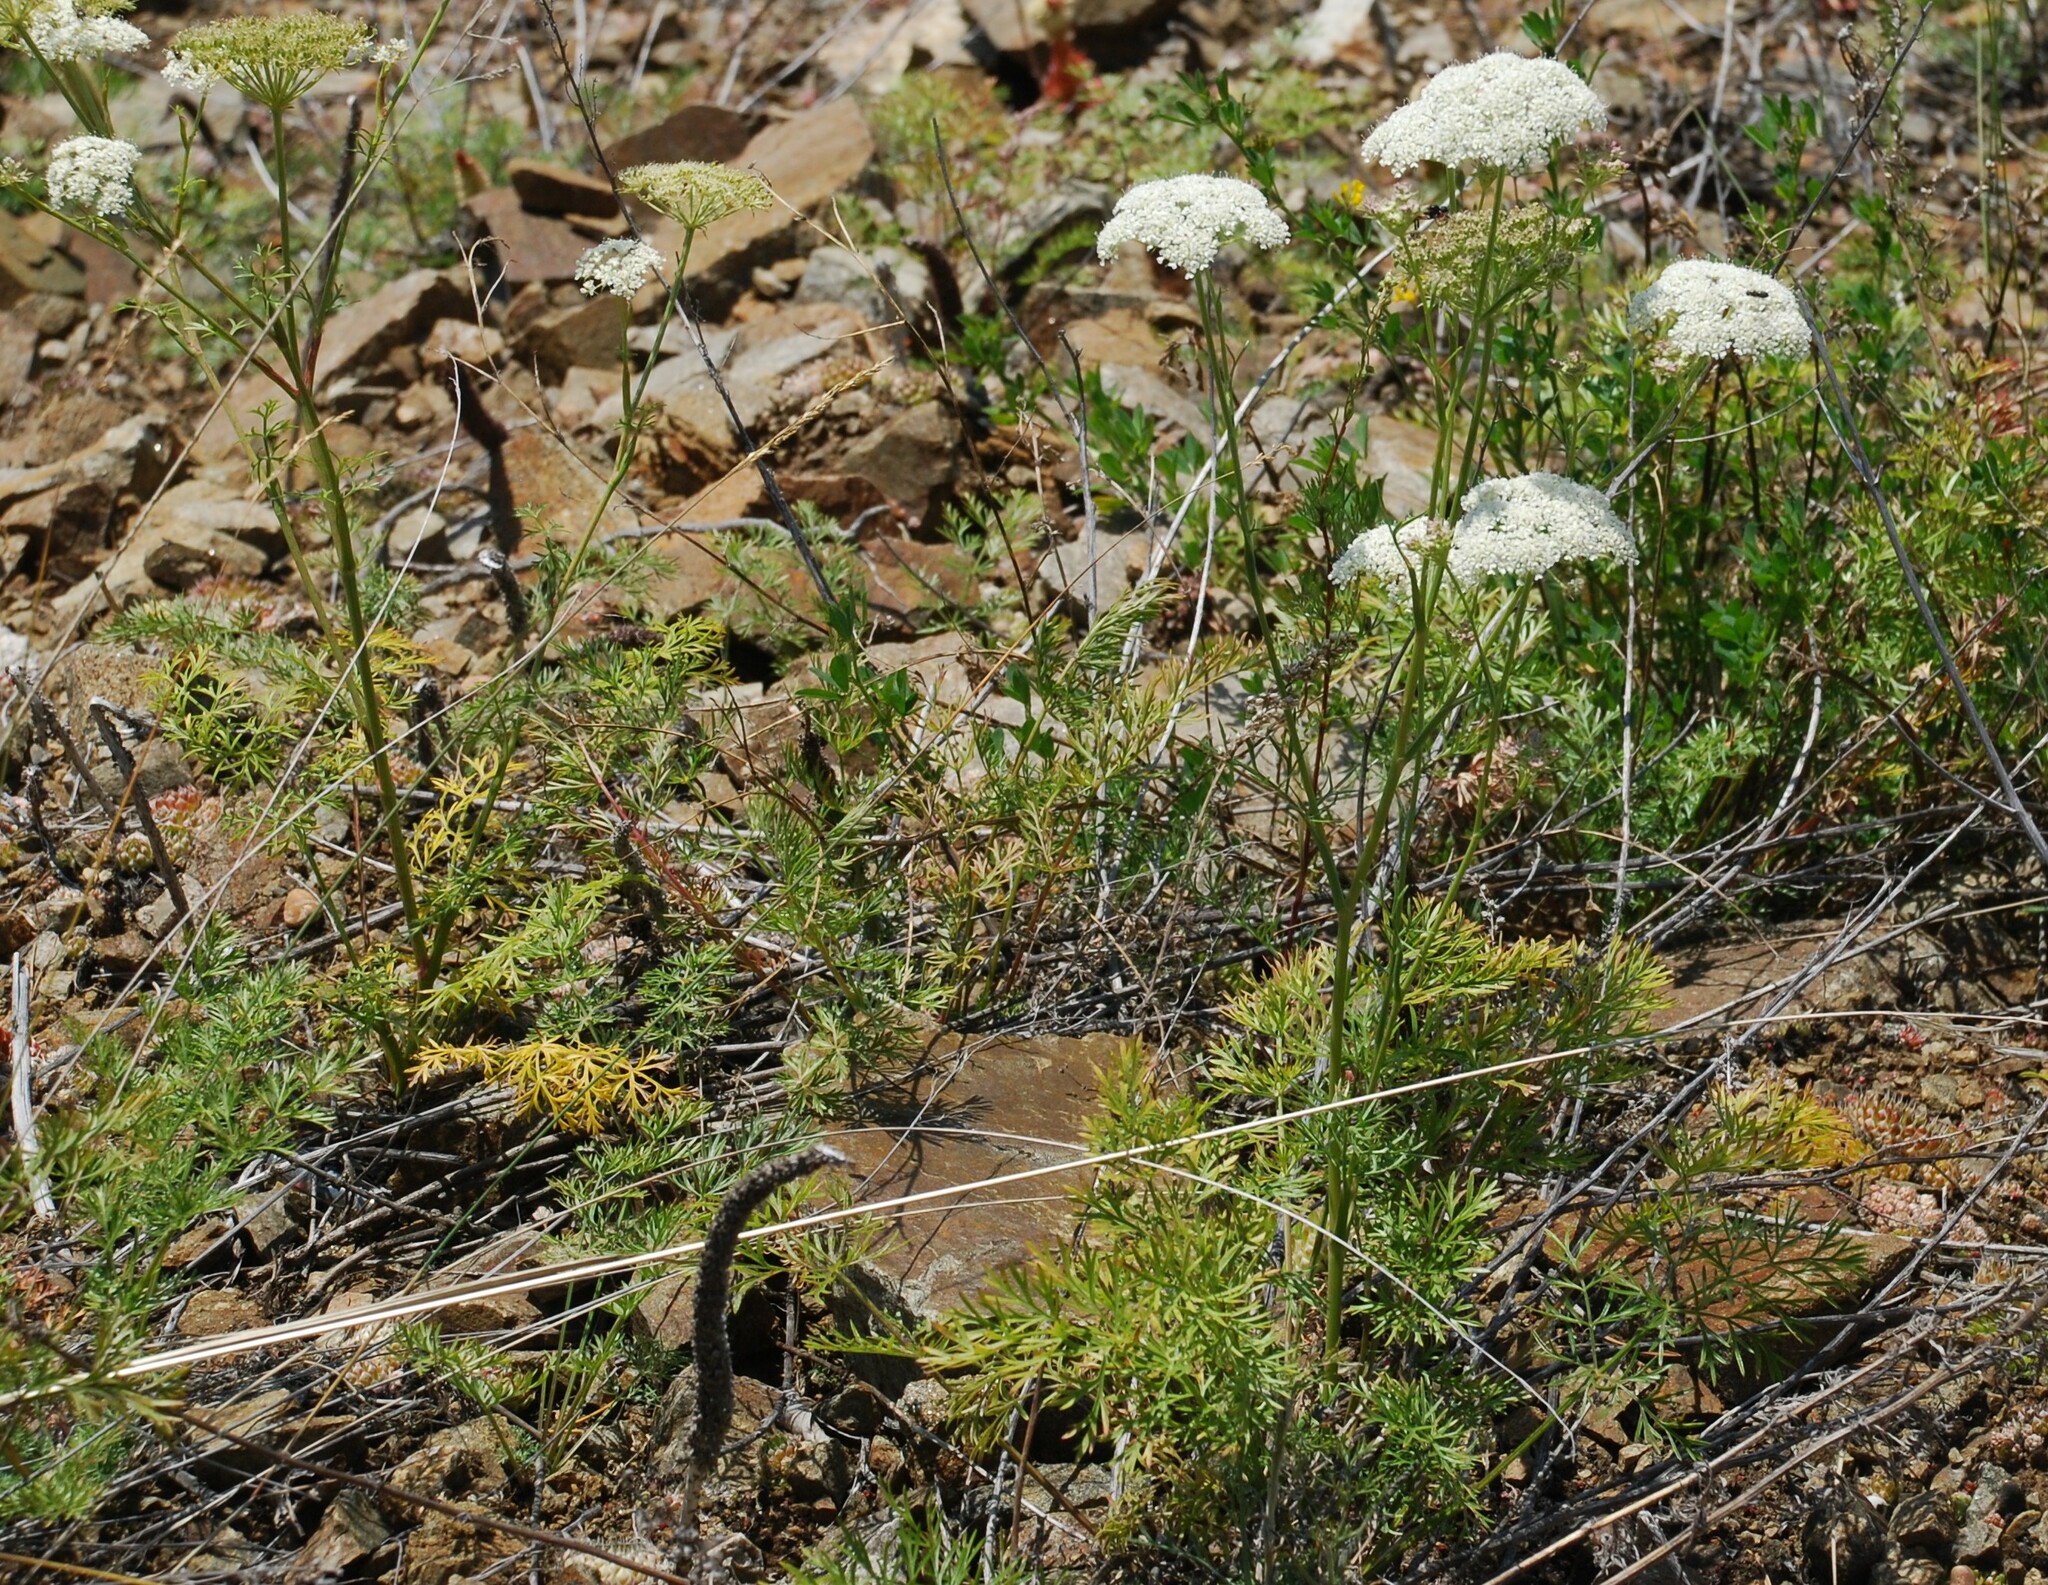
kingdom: Plantae
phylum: Tracheophyta
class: Magnoliopsida
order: Apiales
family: Apiaceae
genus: Kitagawia
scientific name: Kitagawia baicalensis
